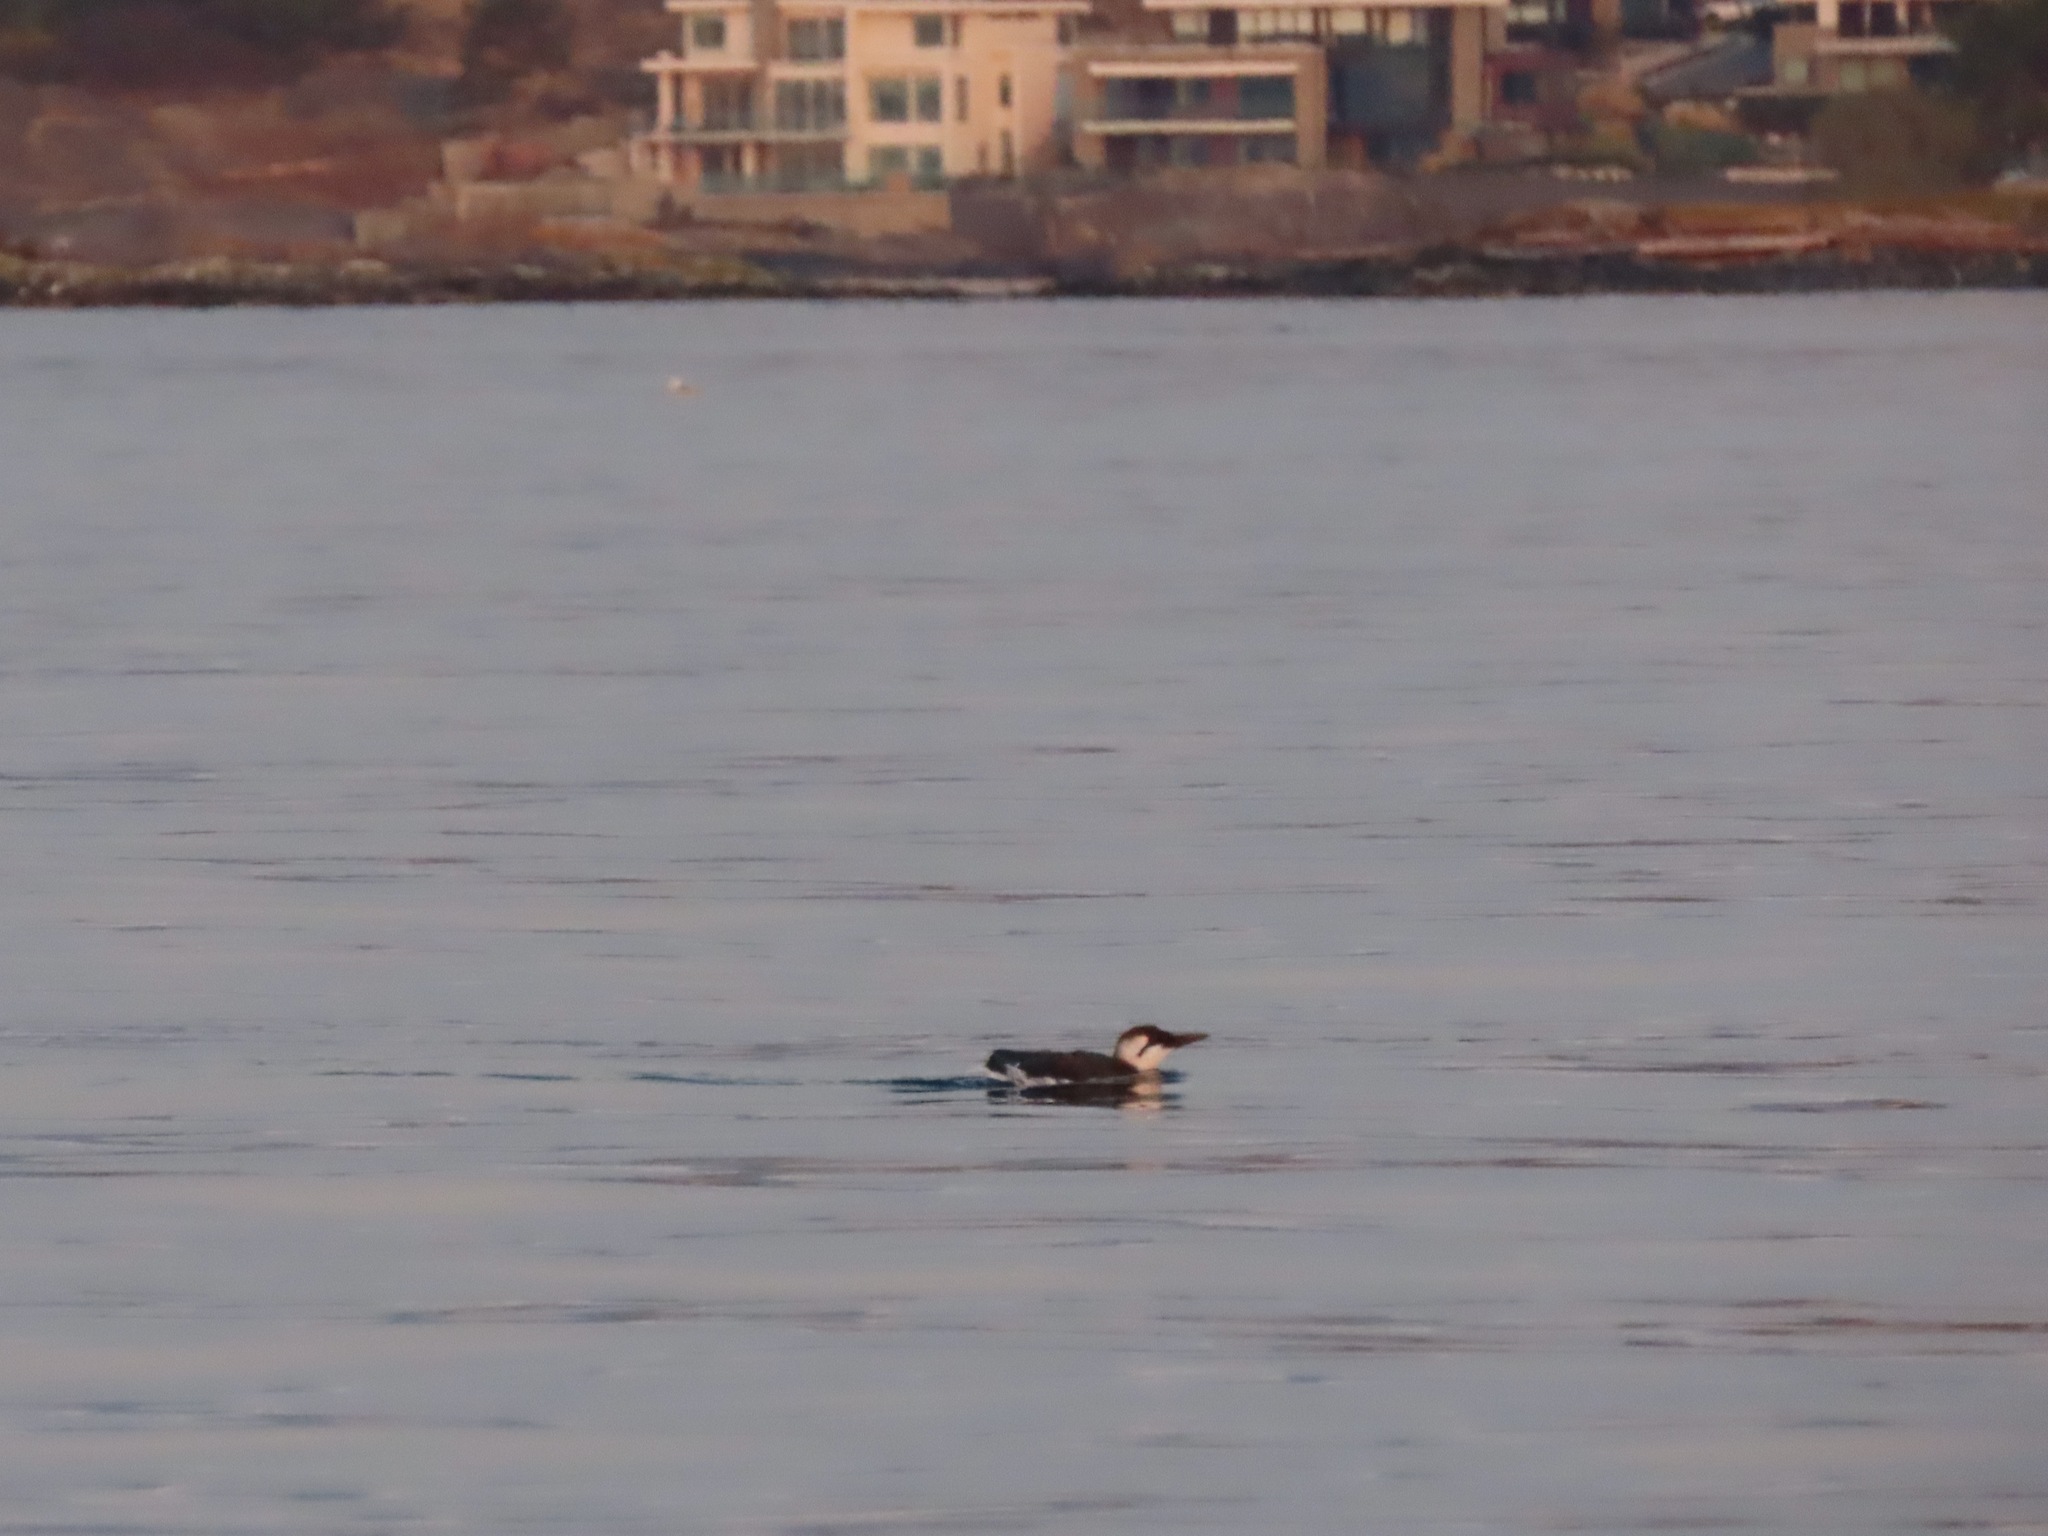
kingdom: Animalia
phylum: Chordata
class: Aves
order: Charadriiformes
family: Alcidae
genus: Uria
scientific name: Uria aalge
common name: Common murre
